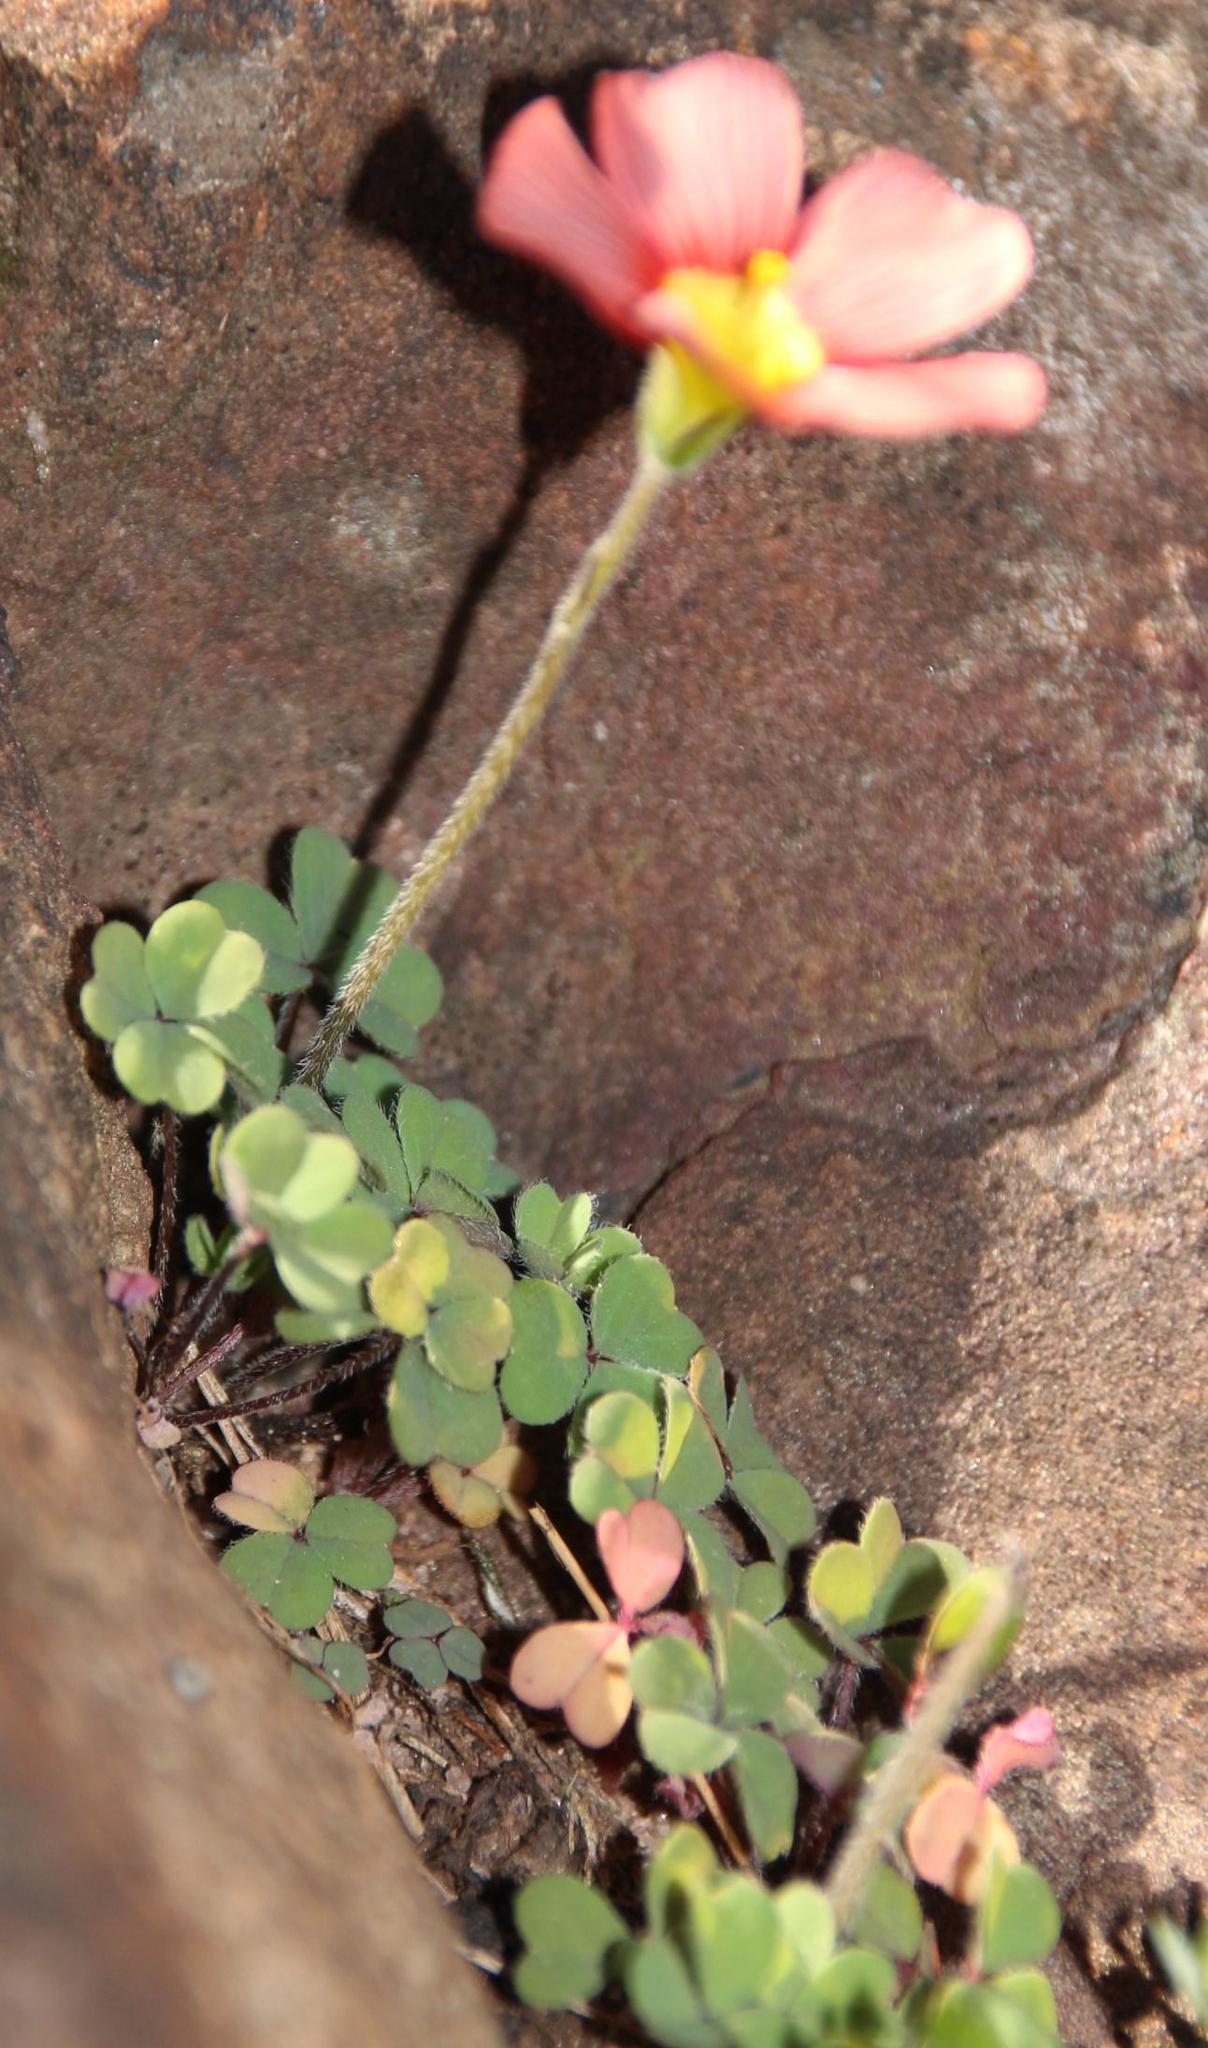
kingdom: Plantae
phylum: Tracheophyta
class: Magnoliopsida
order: Oxalidales
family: Oxalidaceae
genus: Oxalis
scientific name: Oxalis obtusa
